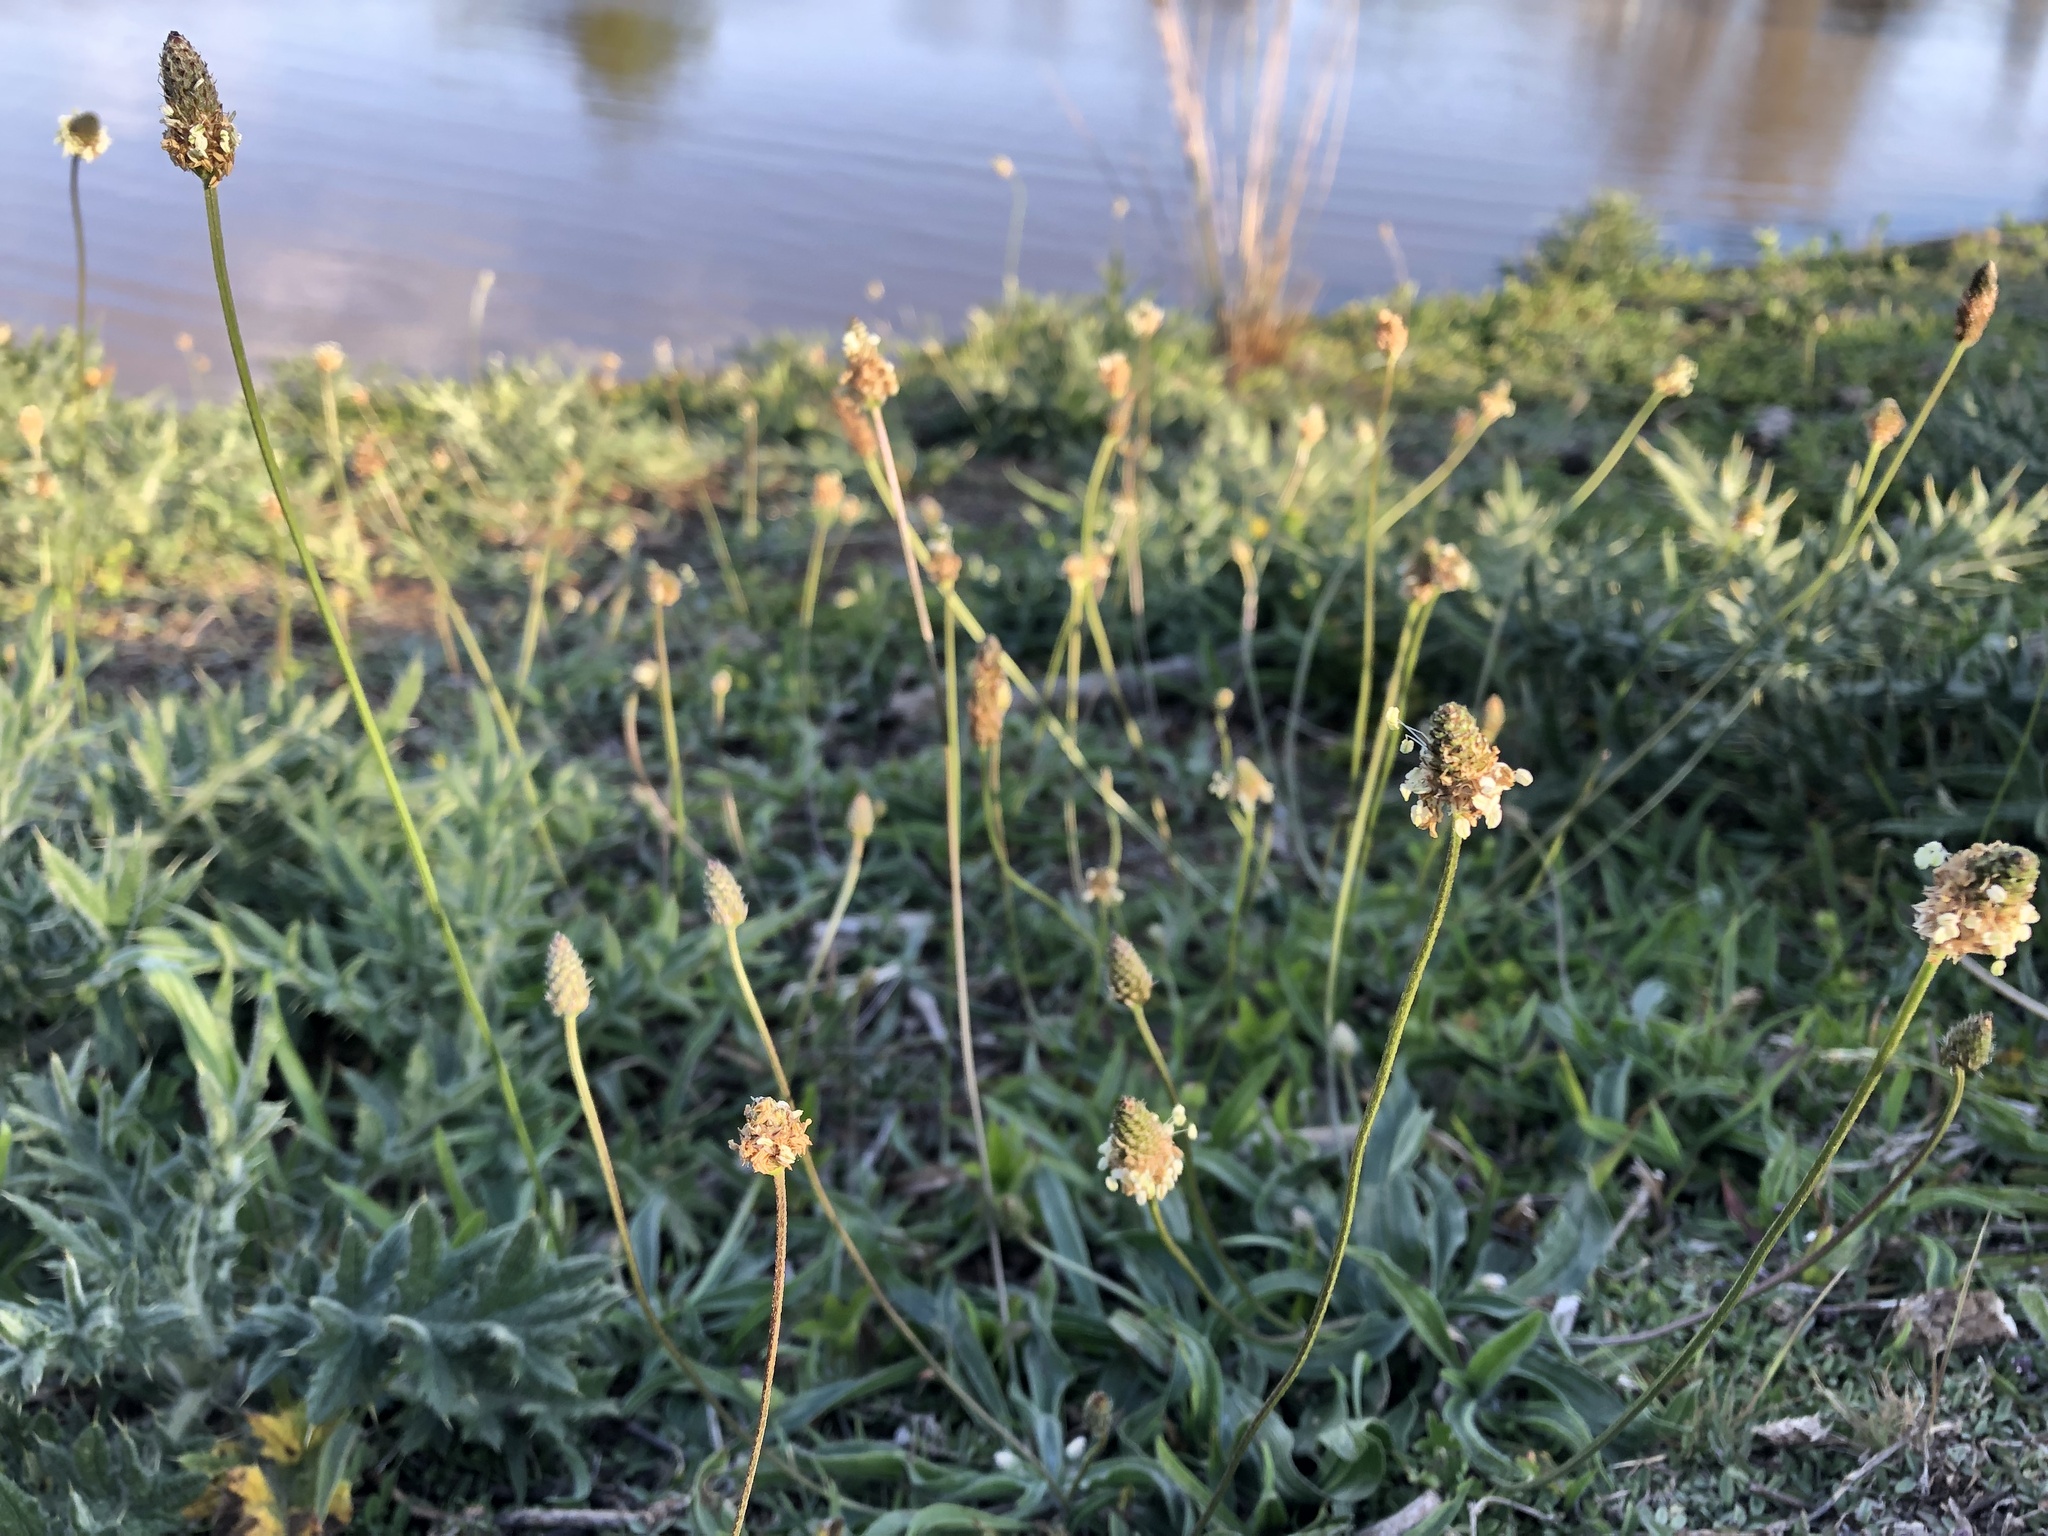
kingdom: Plantae
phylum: Tracheophyta
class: Magnoliopsida
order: Lamiales
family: Plantaginaceae
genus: Plantago
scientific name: Plantago lanceolata
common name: Ribwort plantain
